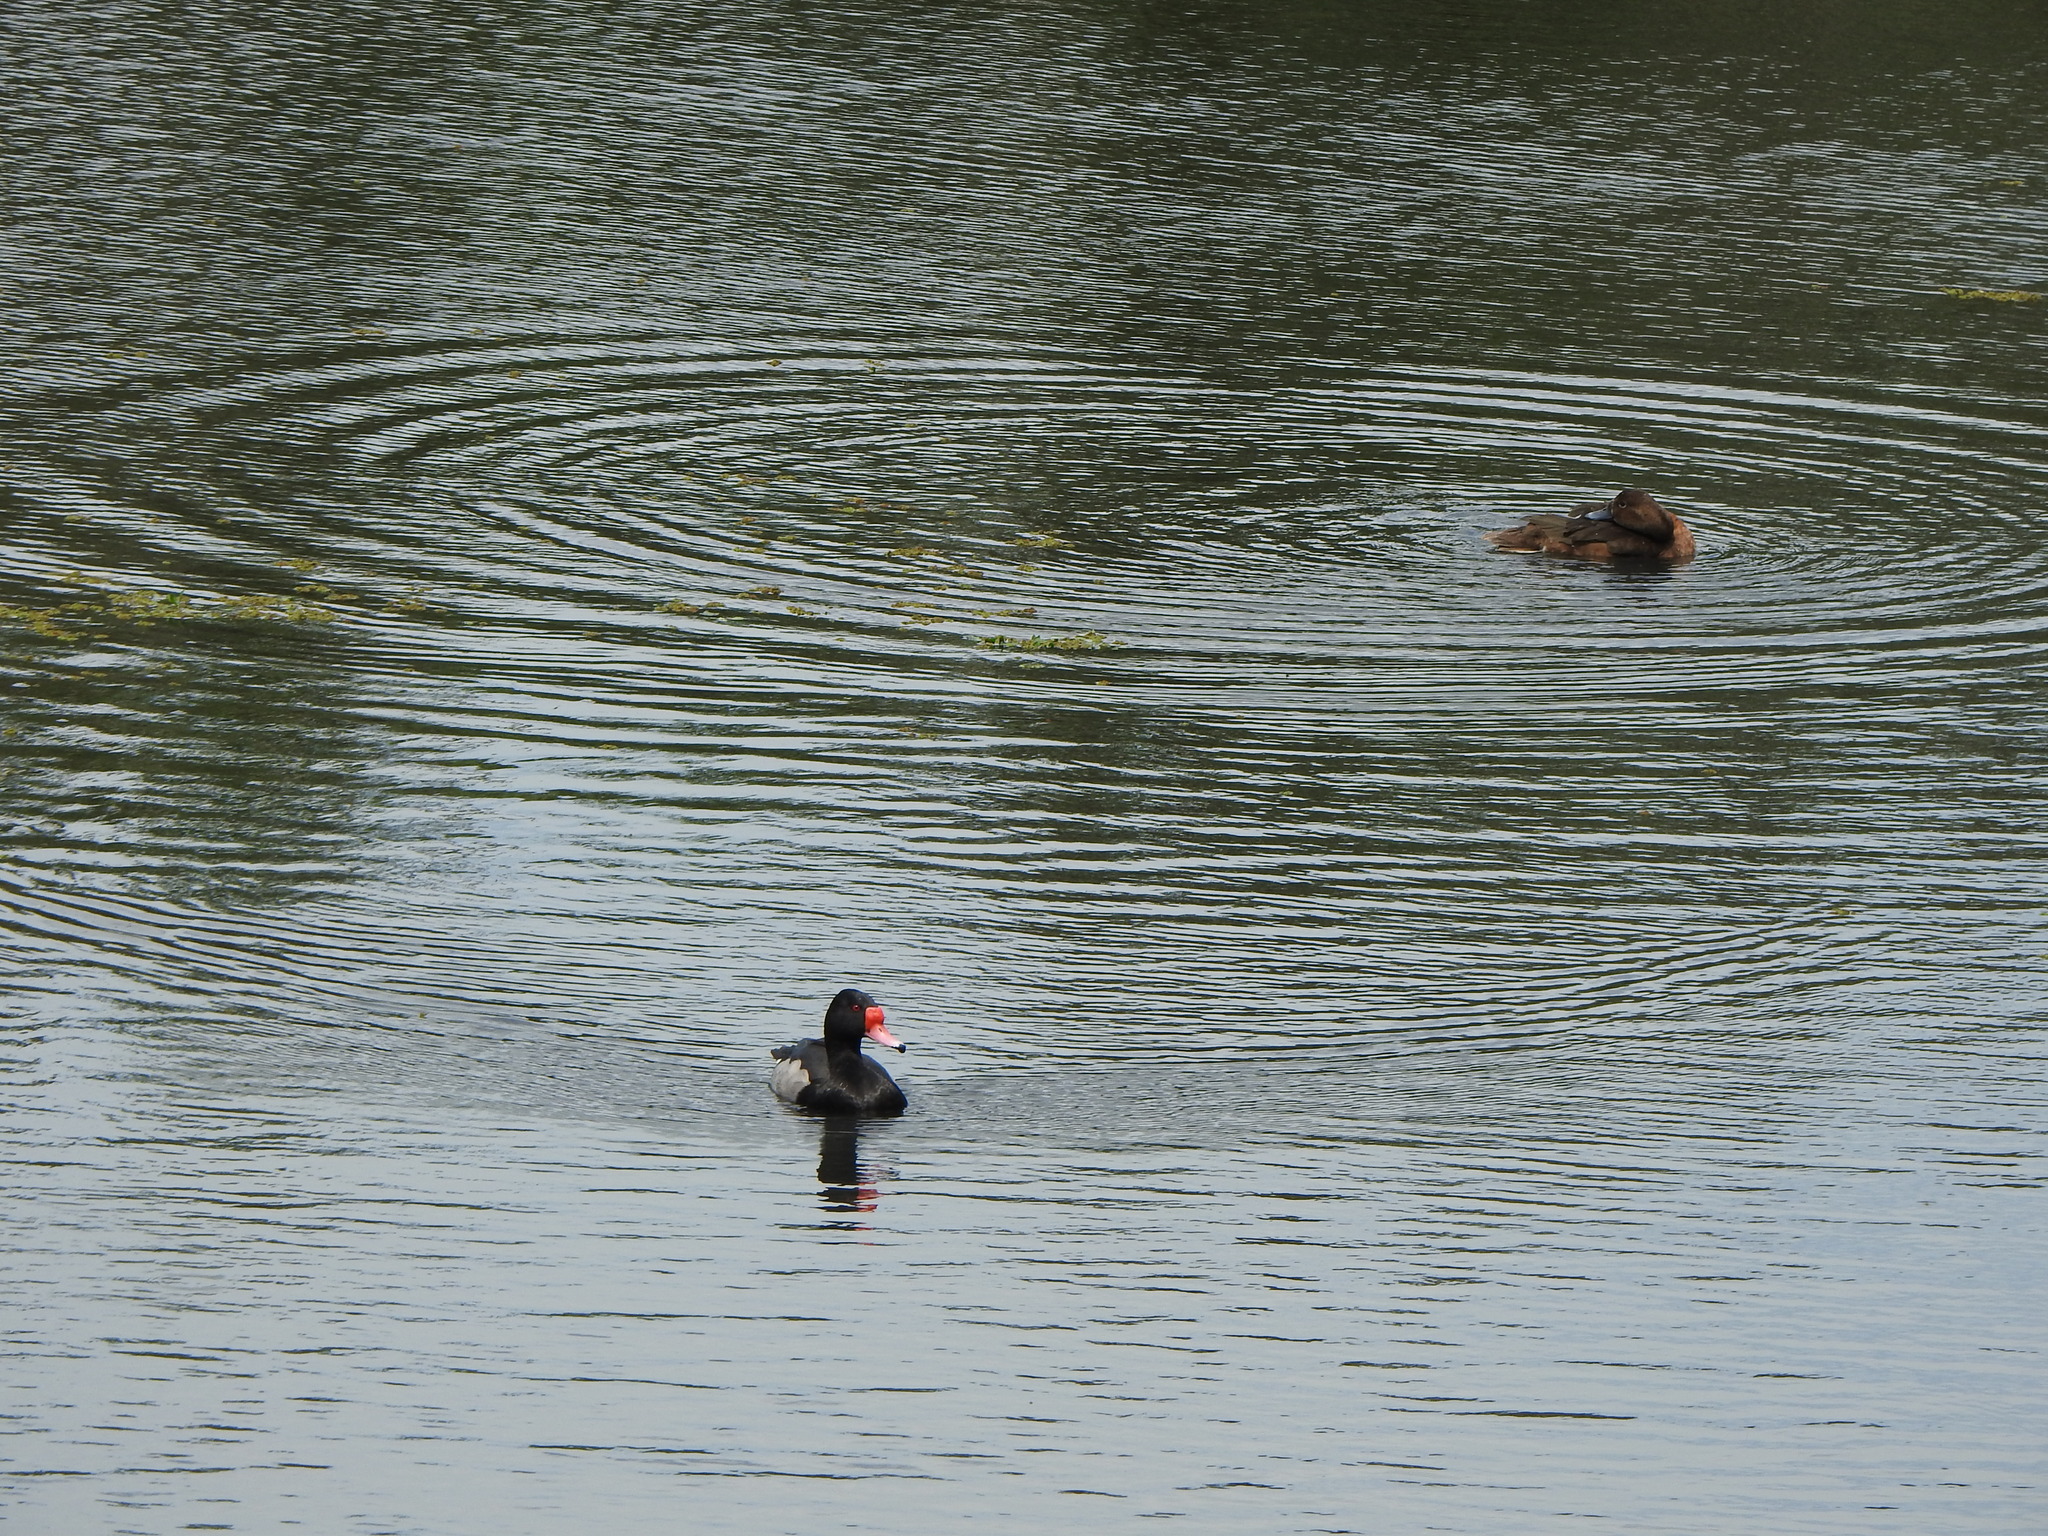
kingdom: Animalia
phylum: Chordata
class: Aves
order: Anseriformes
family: Anatidae
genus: Netta
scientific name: Netta peposaca
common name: Rosy-billed pochard
